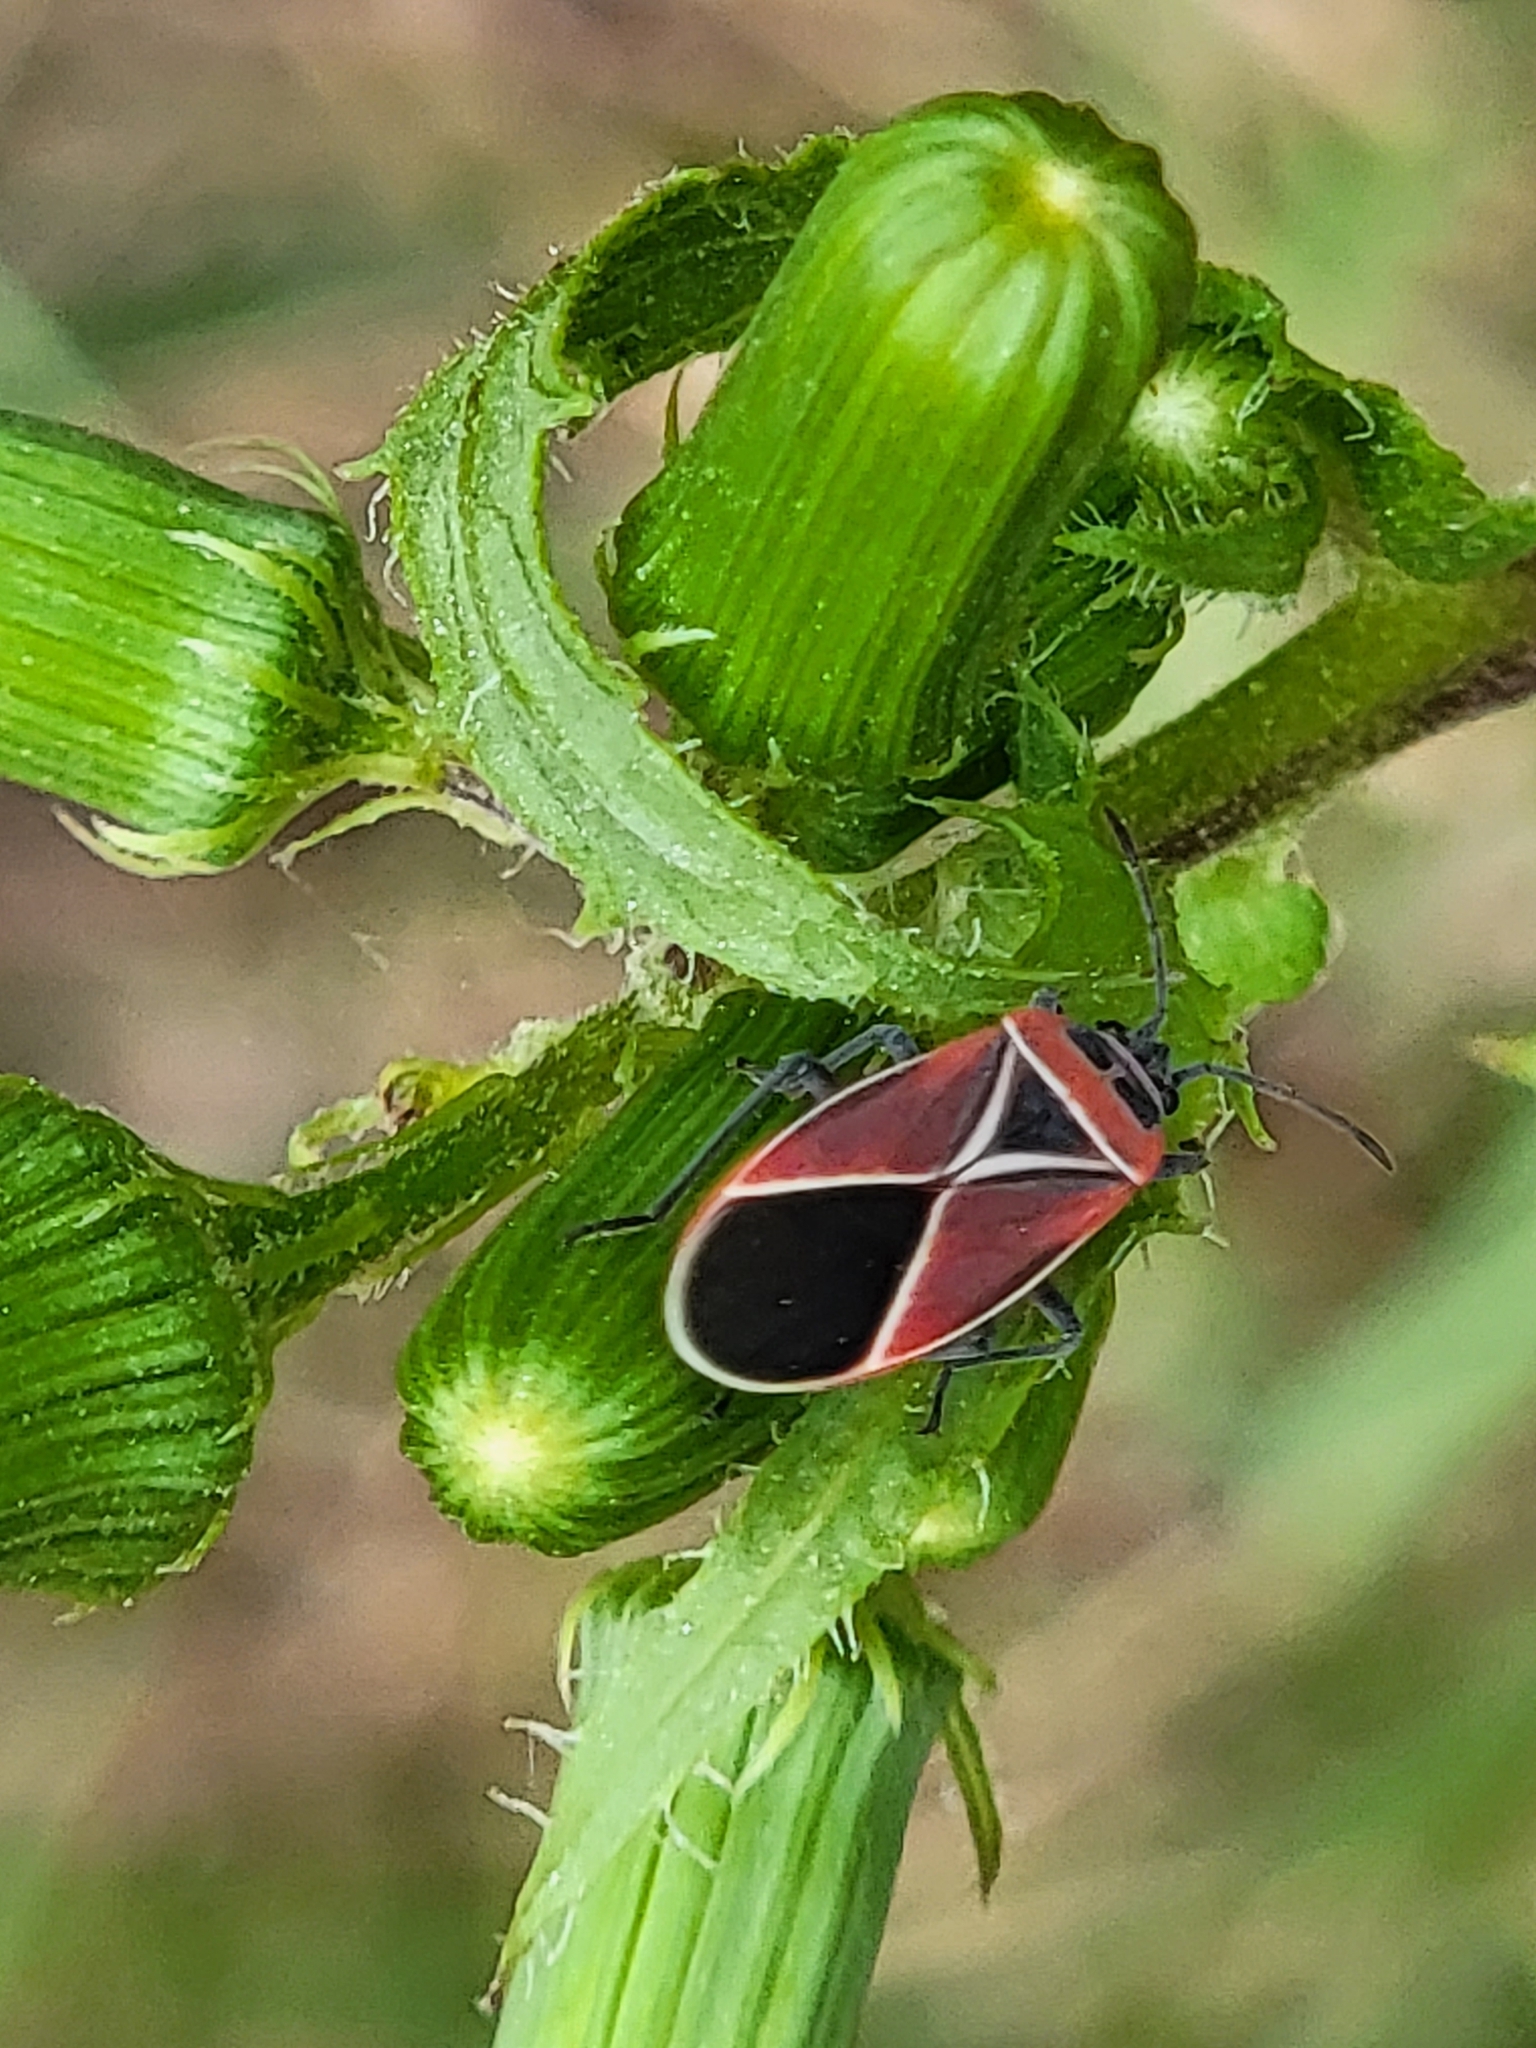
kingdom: Animalia
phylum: Arthropoda
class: Insecta
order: Hemiptera
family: Lygaeidae
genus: Neacoryphus
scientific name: Neacoryphus bicrucis
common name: Lygaeid bug
